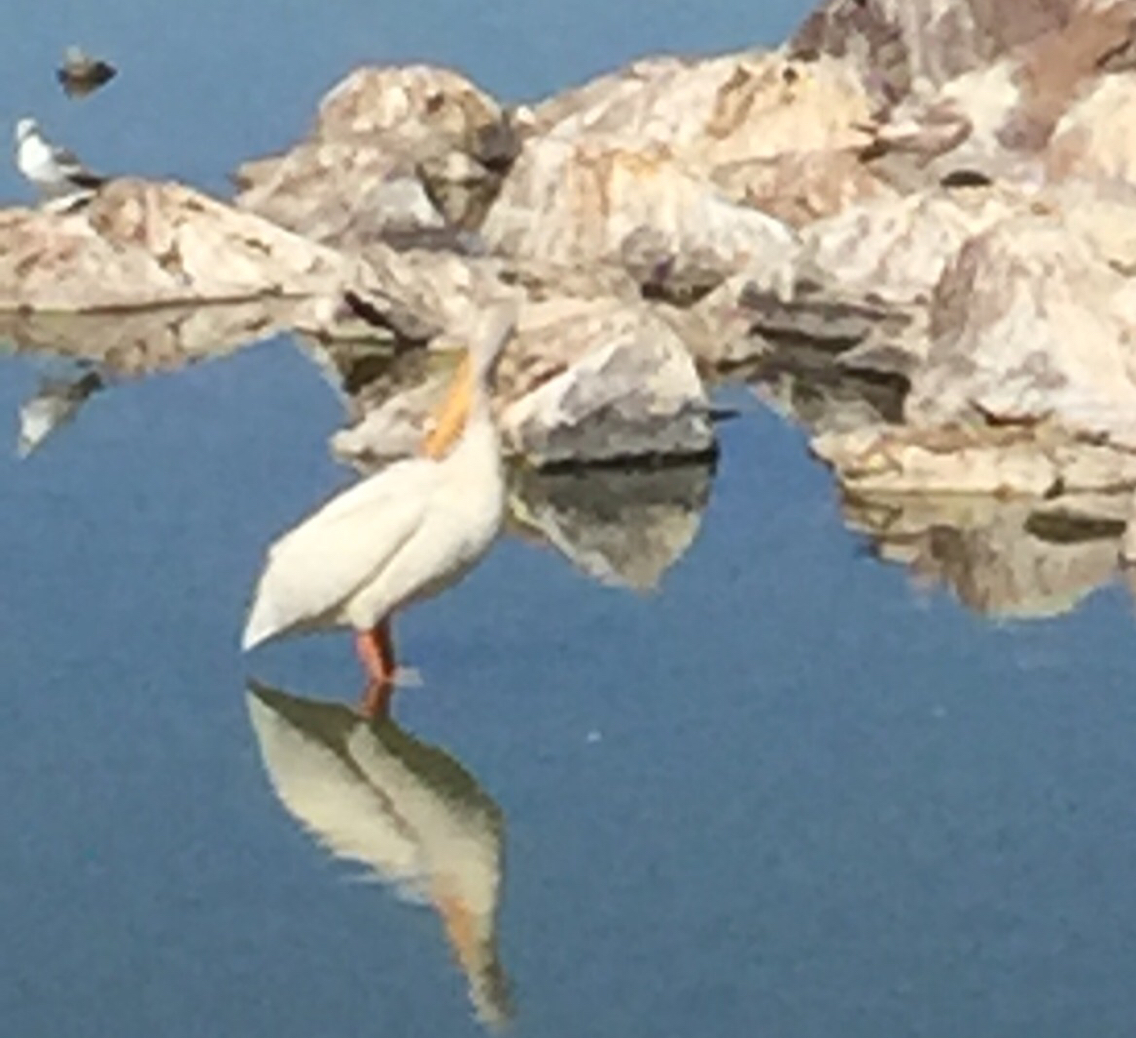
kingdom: Animalia
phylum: Chordata
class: Aves
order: Pelecaniformes
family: Pelecanidae
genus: Pelecanus
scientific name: Pelecanus erythrorhynchos
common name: American white pelican
